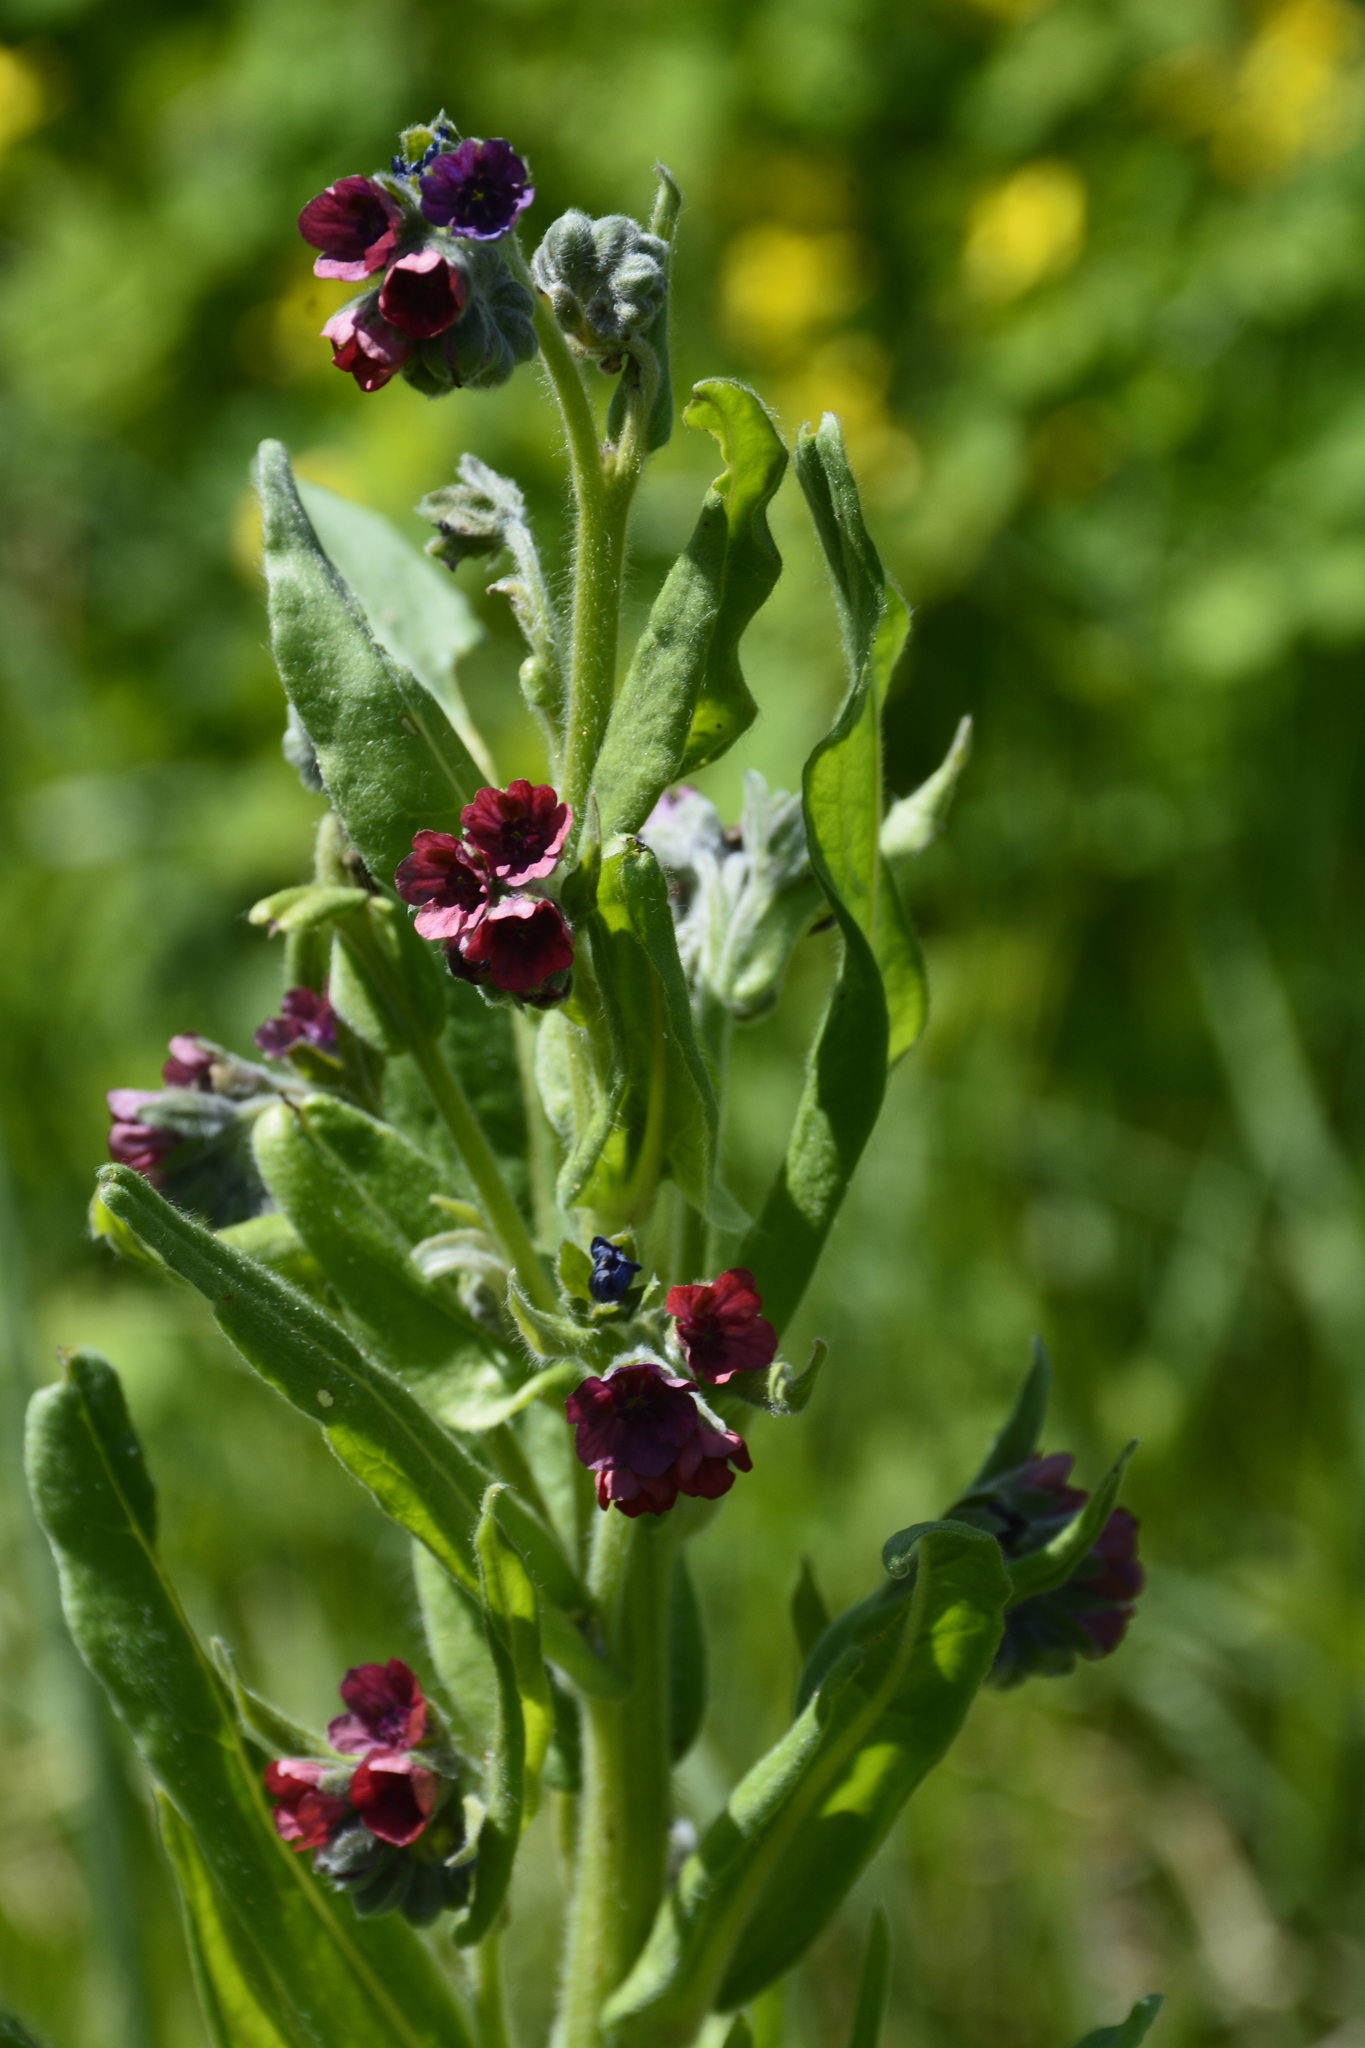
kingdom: Plantae
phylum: Tracheophyta
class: Magnoliopsida
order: Boraginales
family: Boraginaceae
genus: Cynoglossum
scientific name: Cynoglossum officinale
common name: Hound's-tongue
